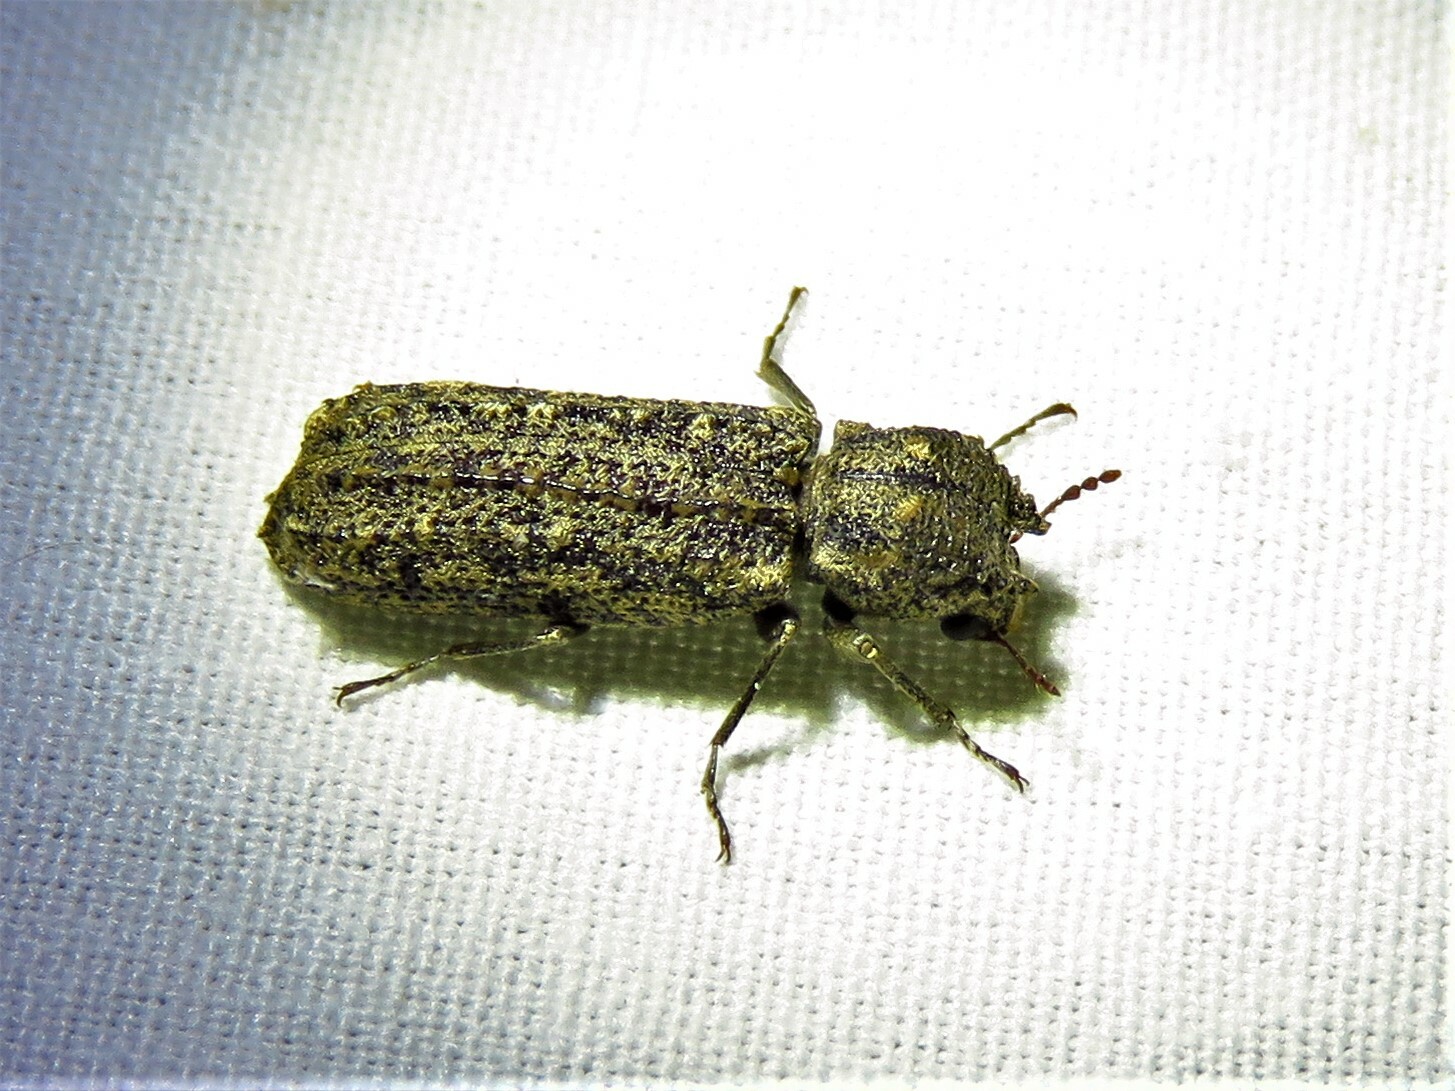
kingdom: Animalia
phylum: Arthropoda
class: Insecta
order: Coleoptera
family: Bostrichidae
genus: Lichenophanes
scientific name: Lichenophanes bicornis
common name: Two-horned powder-post beetle
